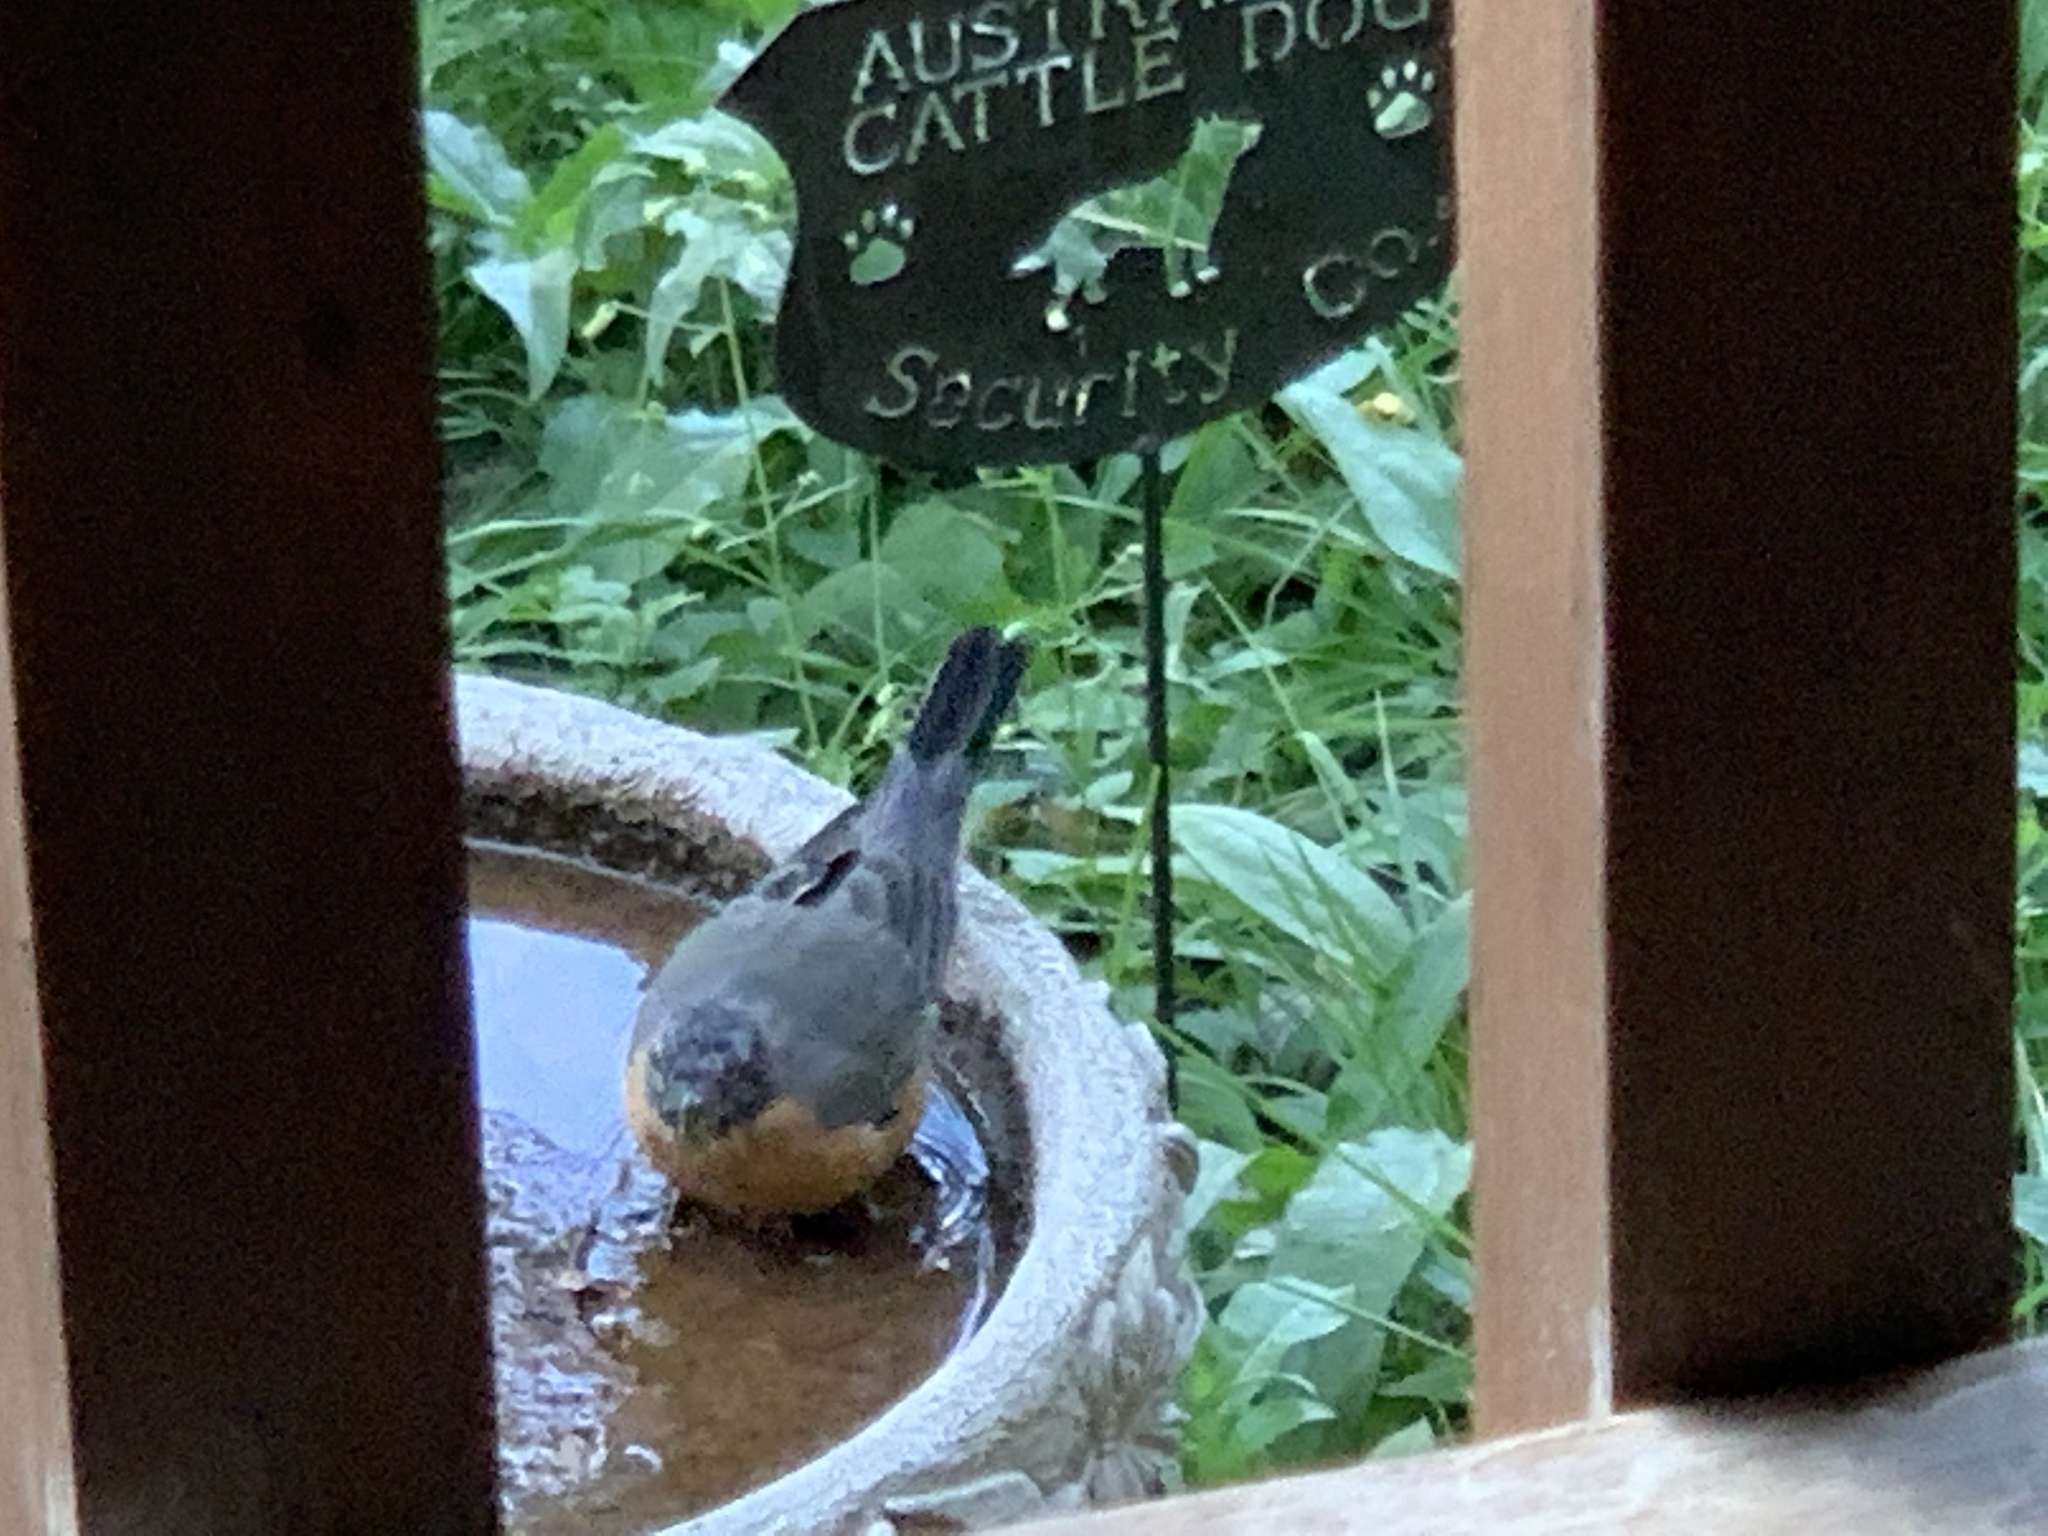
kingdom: Animalia
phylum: Chordata
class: Aves
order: Passeriformes
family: Turdidae
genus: Turdus
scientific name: Turdus migratorius
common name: American robin
